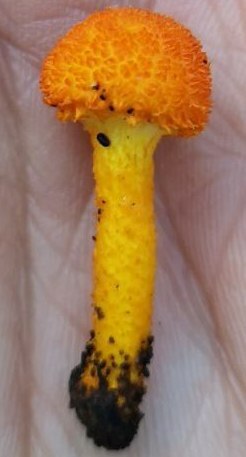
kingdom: Fungi
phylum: Basidiomycota
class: Agaricomycetes
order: Agaricales
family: Physalacriaceae
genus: Cyptotrama
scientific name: Cyptotrama asprata
